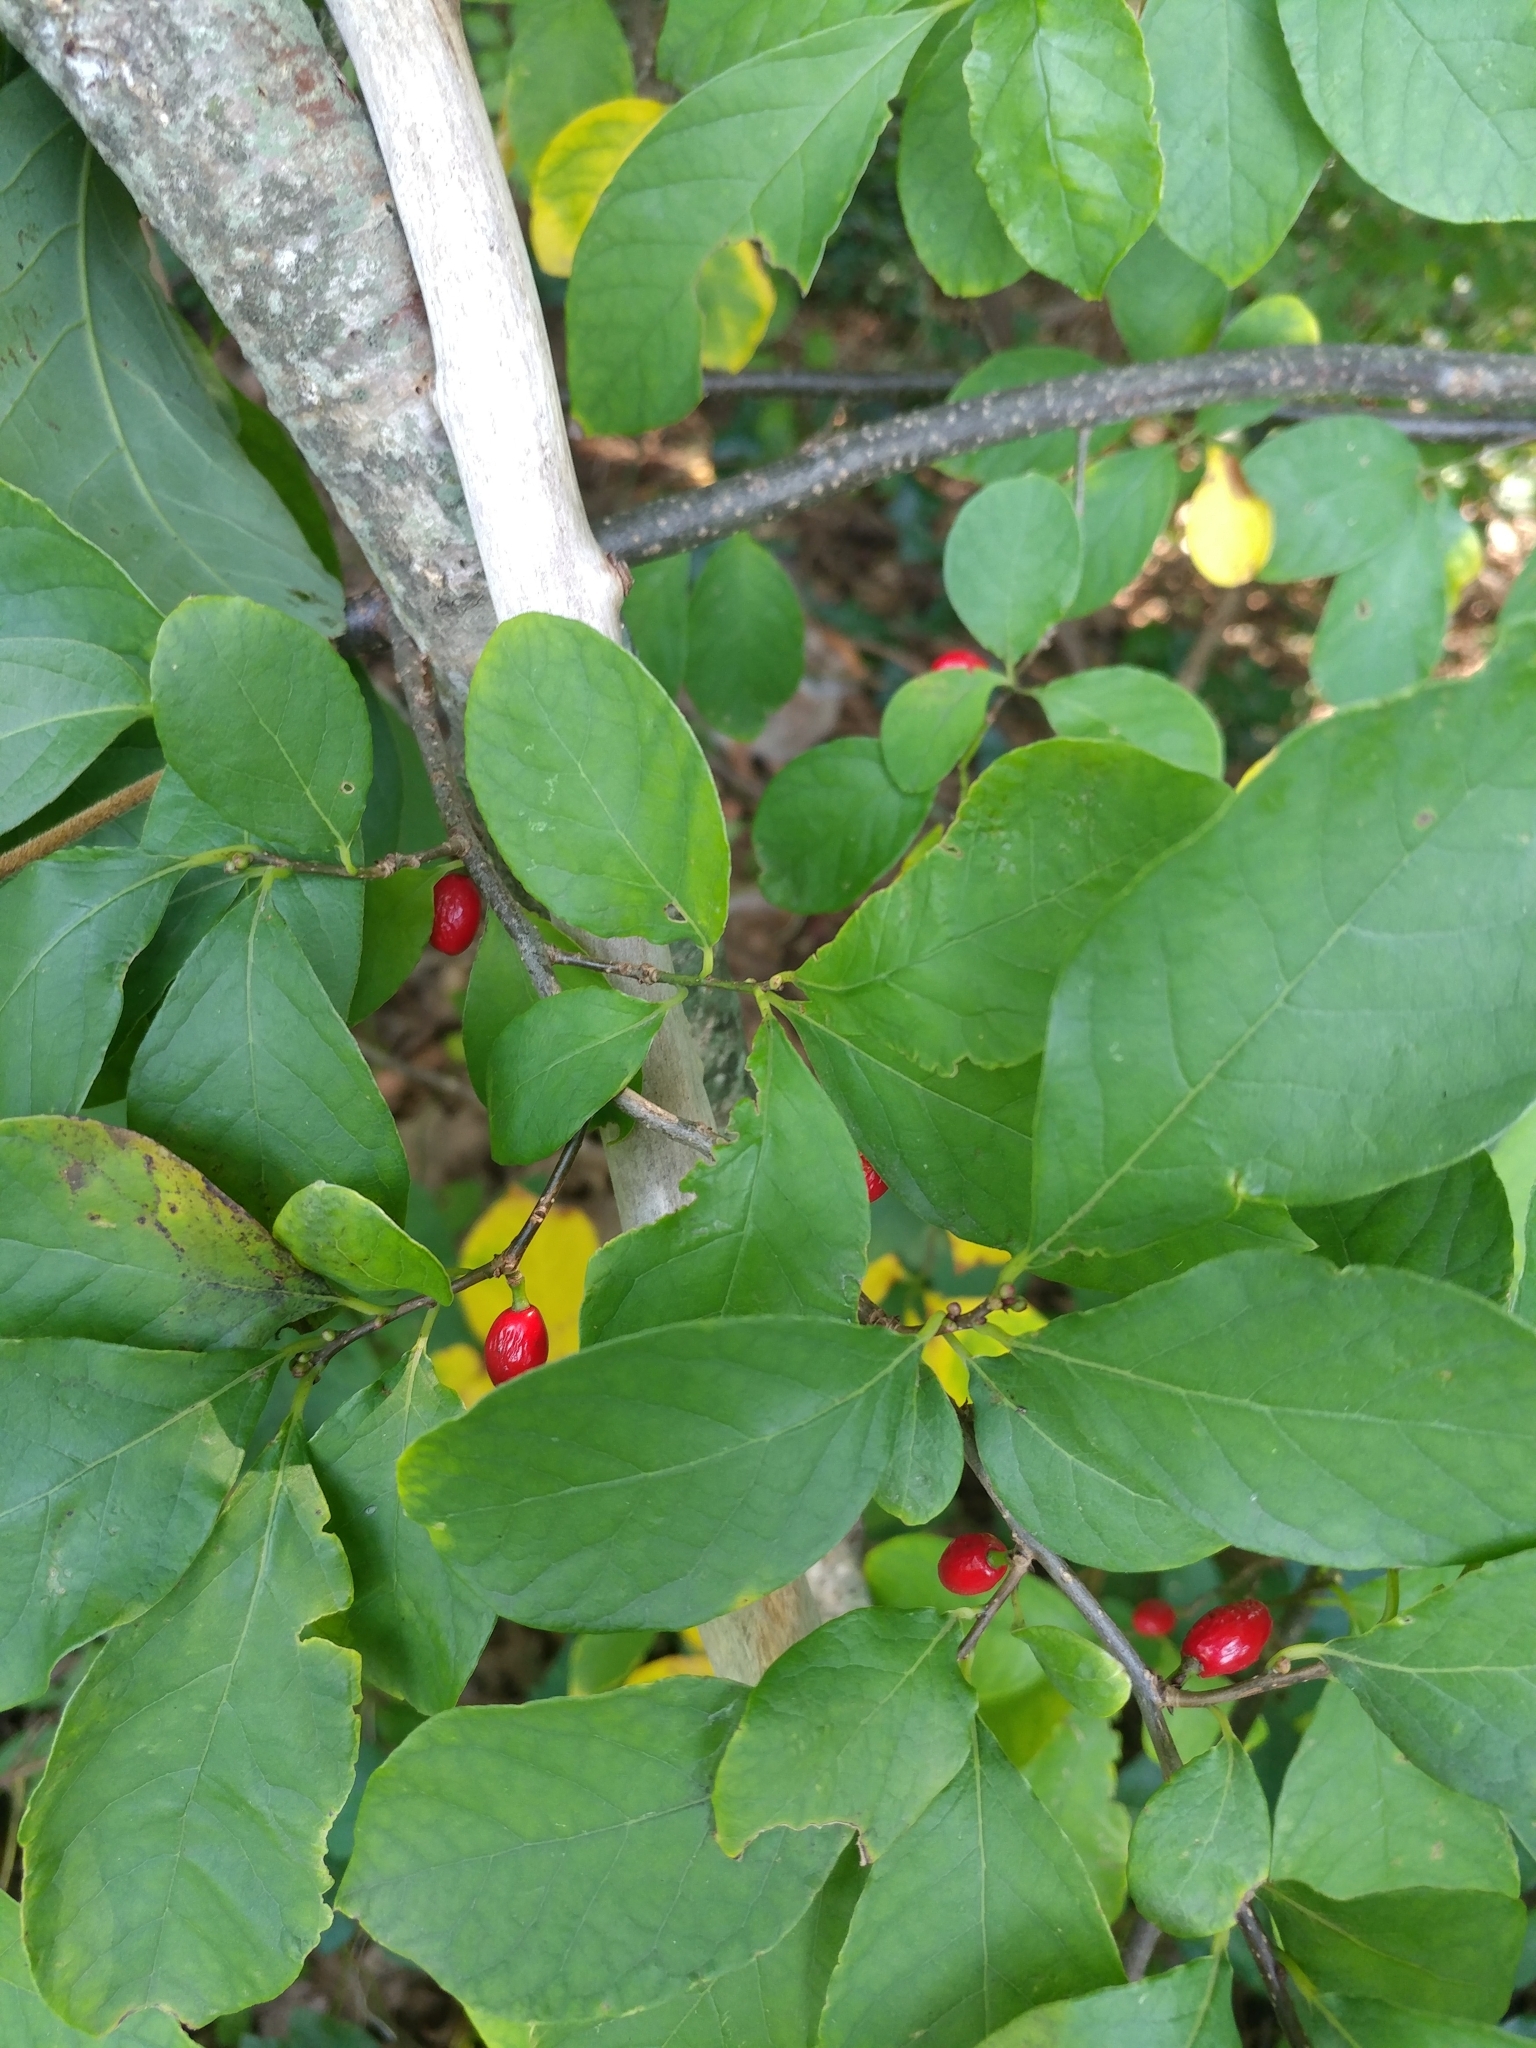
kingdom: Plantae
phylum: Tracheophyta
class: Magnoliopsida
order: Laurales
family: Lauraceae
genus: Lindera
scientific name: Lindera benzoin
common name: Spicebush
